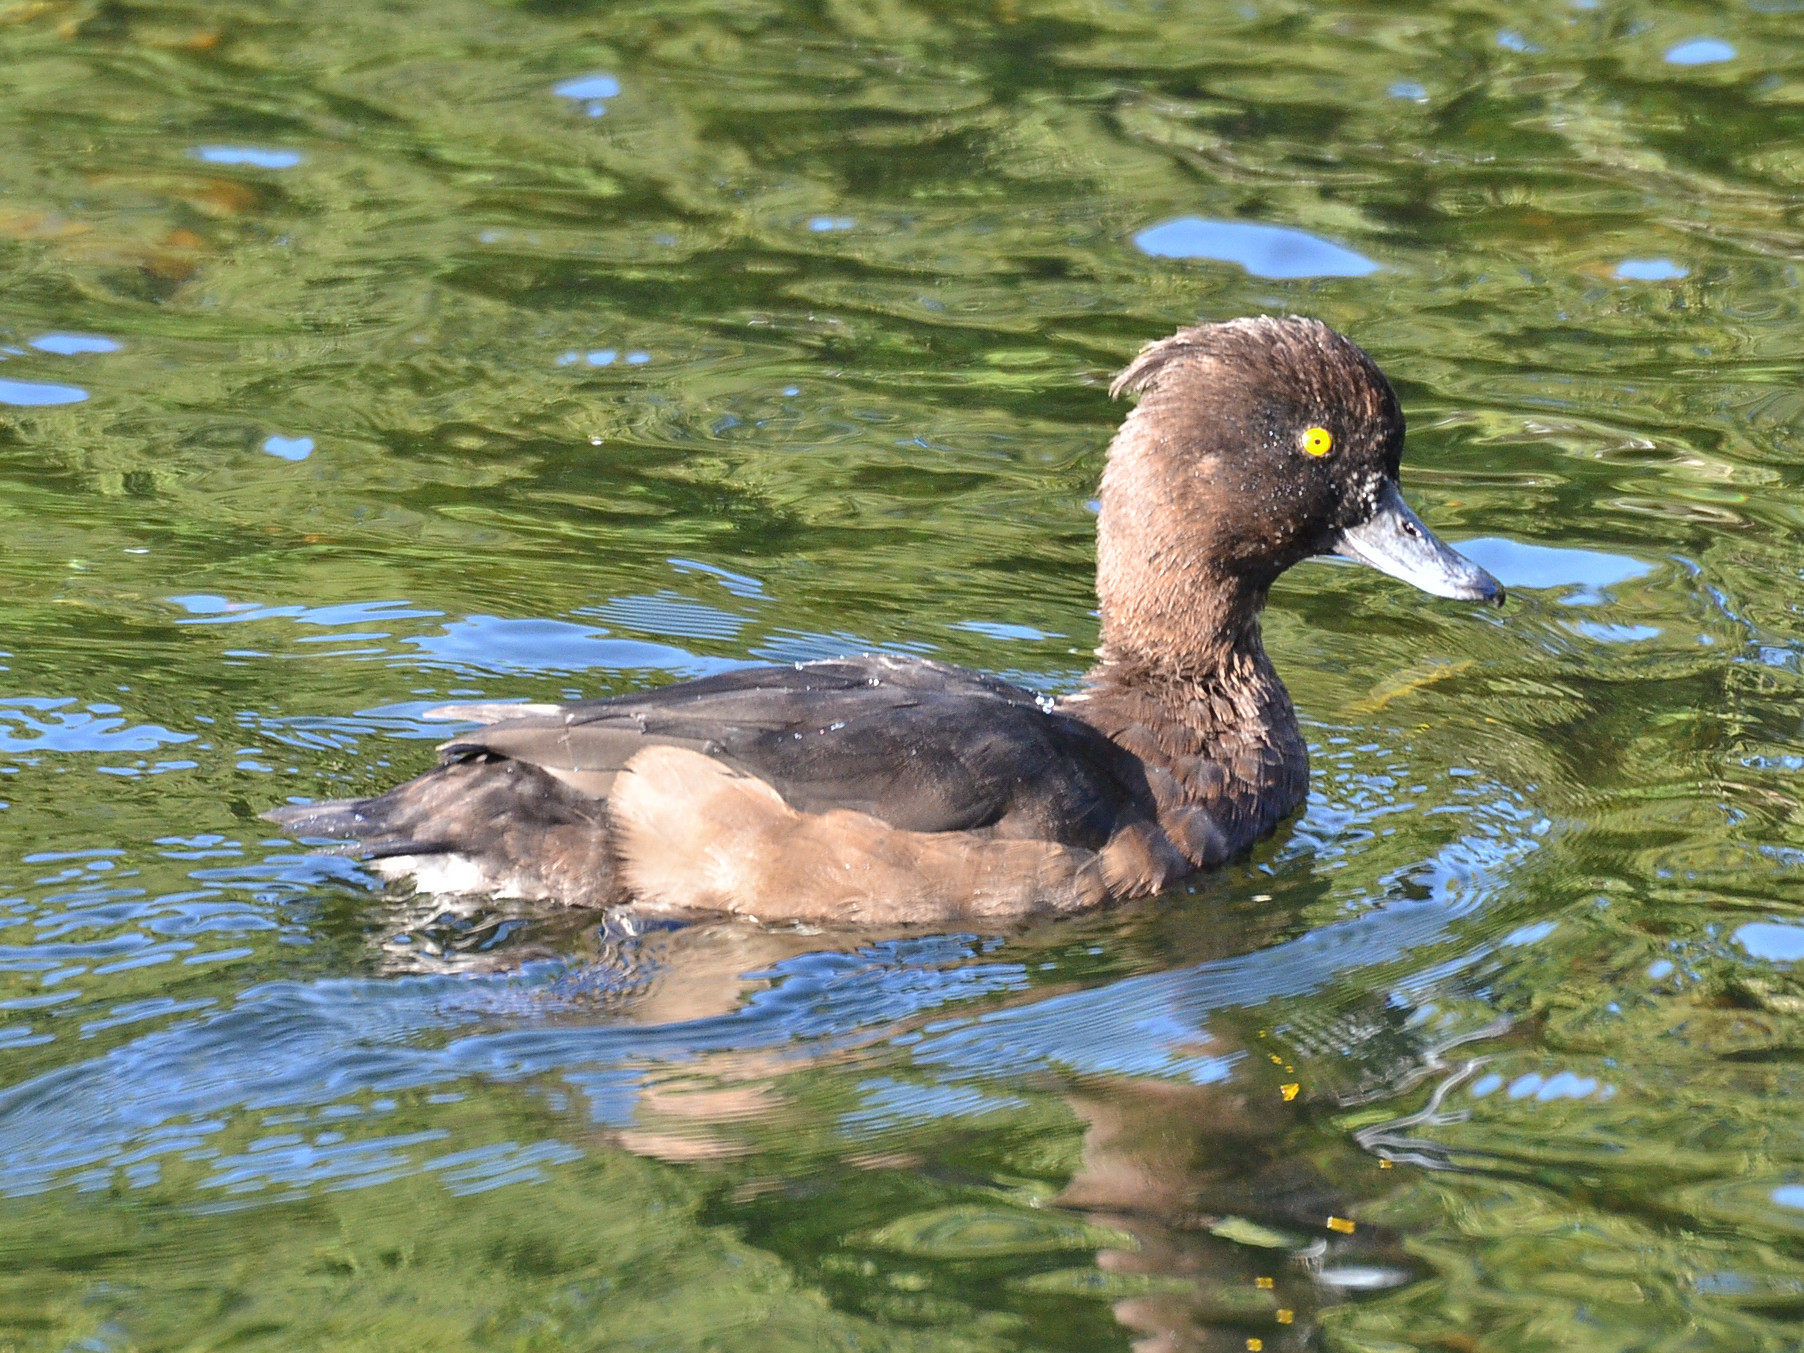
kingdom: Animalia
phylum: Chordata
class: Aves
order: Anseriformes
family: Anatidae
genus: Aythya
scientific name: Aythya fuligula
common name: Tufted duck
